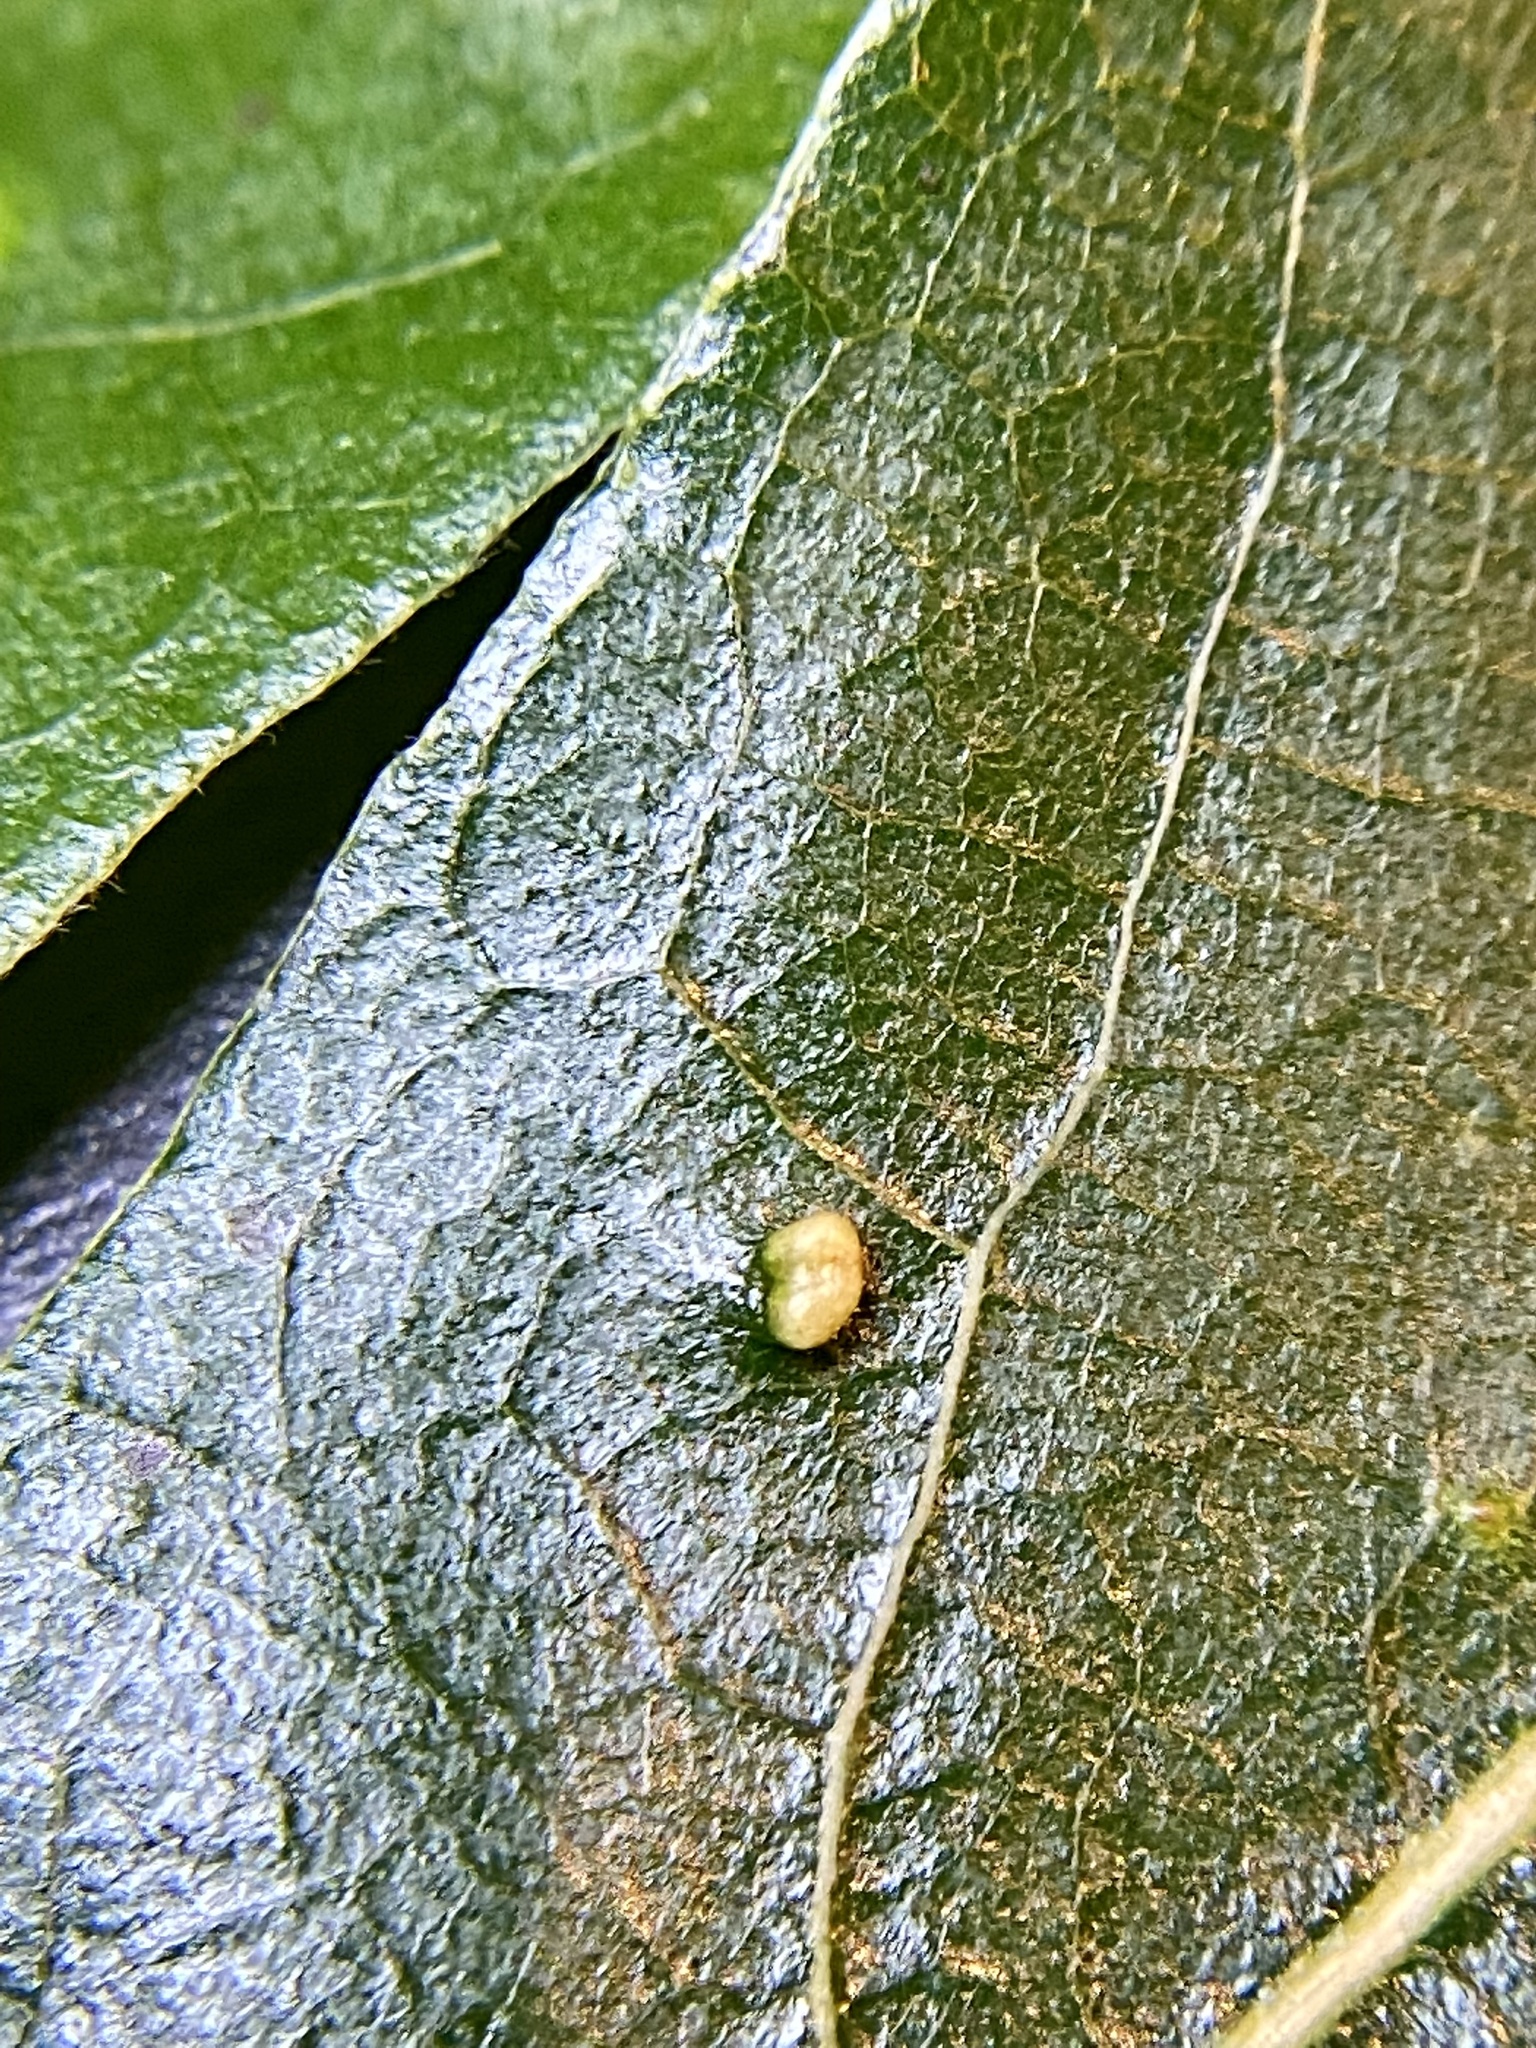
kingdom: Animalia
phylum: Arthropoda
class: Arachnida
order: Trombidiformes
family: Eriophyidae
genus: Aceria
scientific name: Aceria
